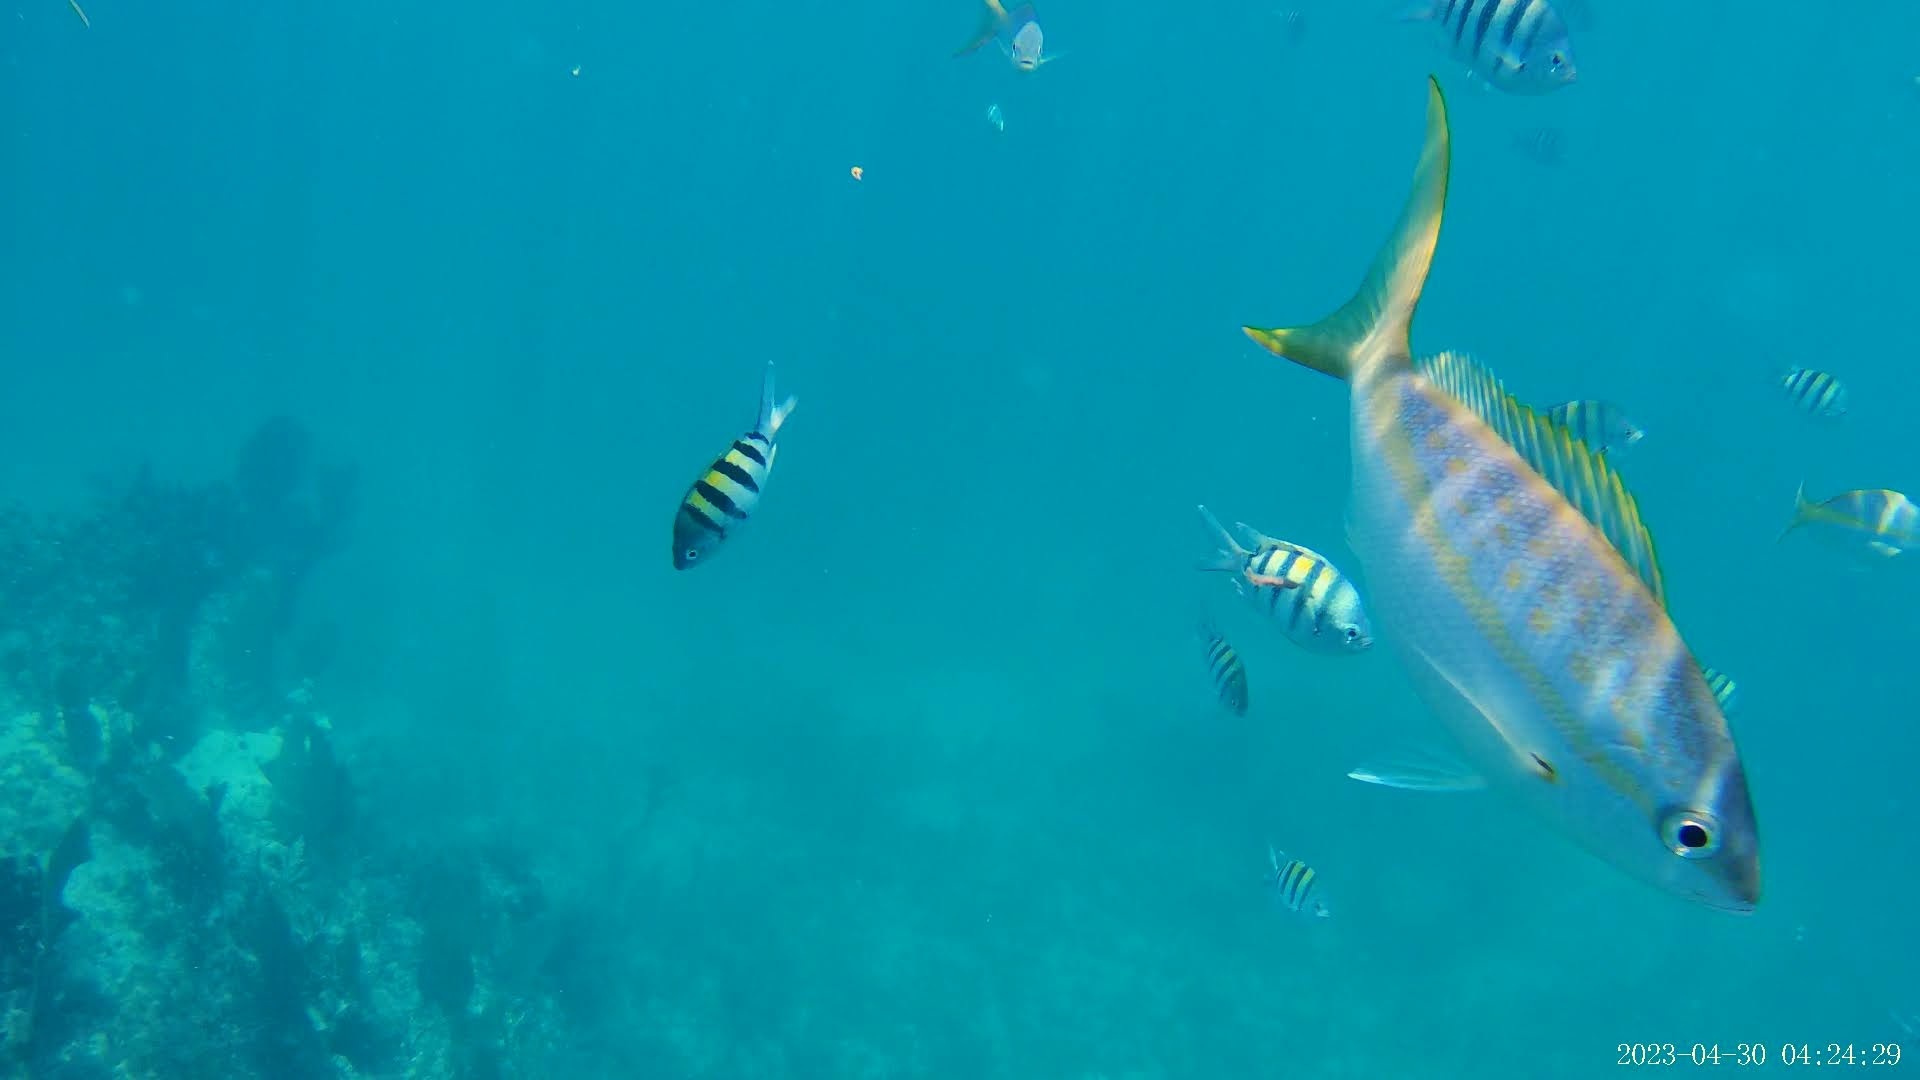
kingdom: Animalia
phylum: Chordata
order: Perciformes
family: Lutjanidae
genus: Ocyurus
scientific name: Ocyurus chrysurus
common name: Yellowtail snapper
